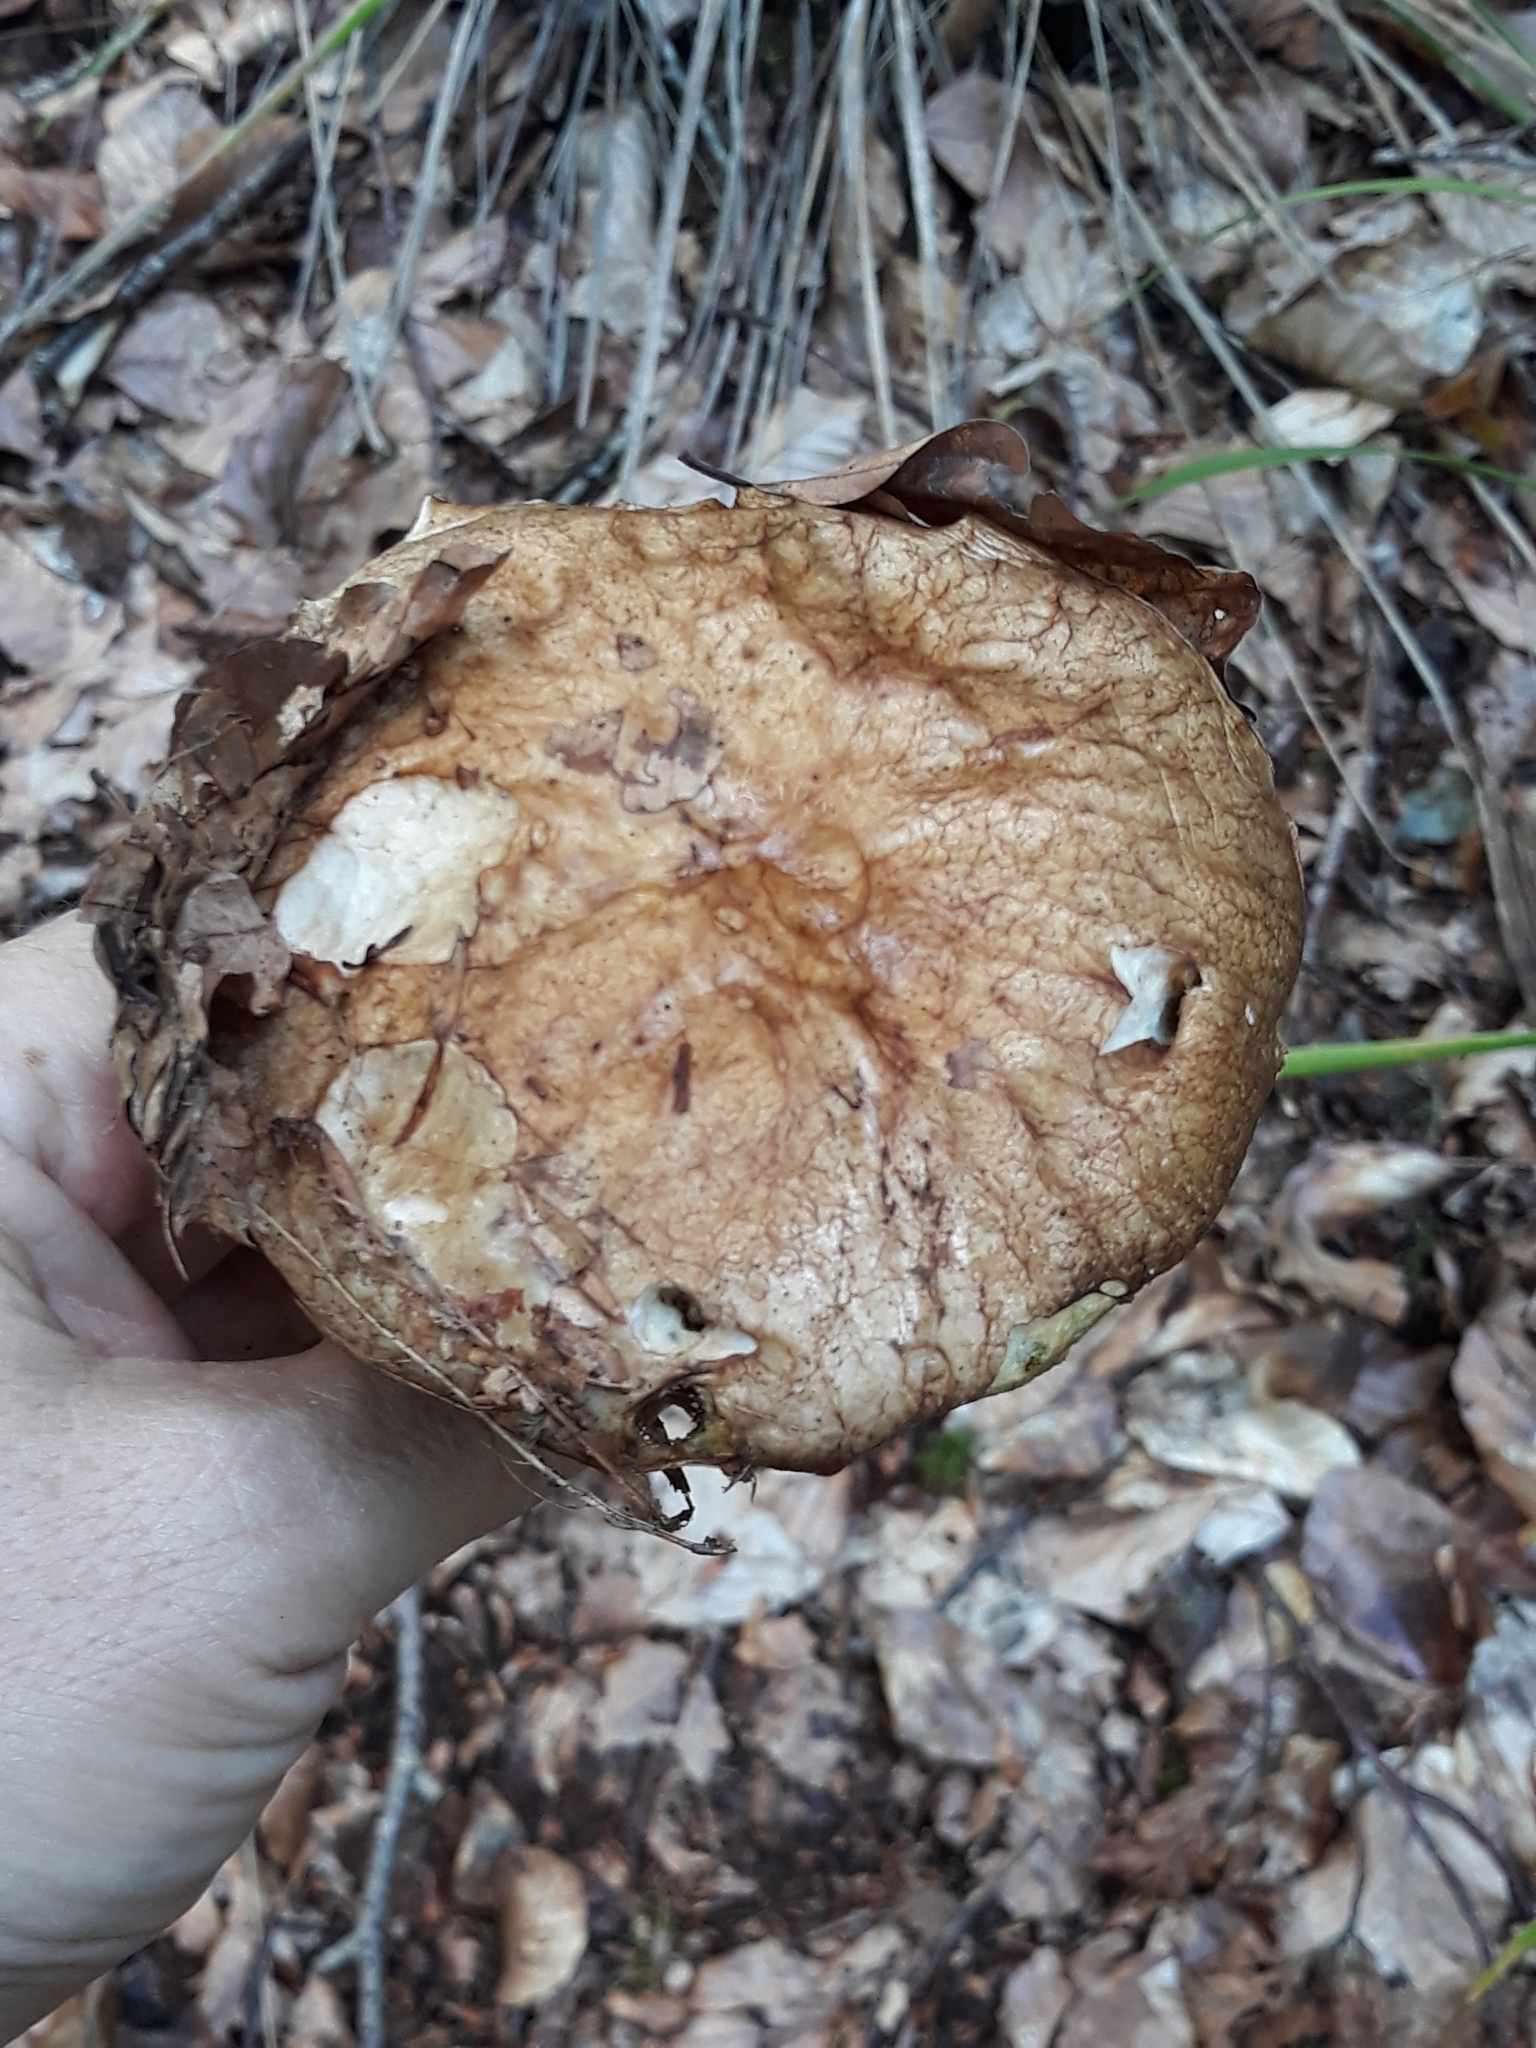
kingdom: Fungi
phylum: Basidiomycota
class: Agaricomycetes
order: Boletales
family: Boletaceae
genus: Boletus
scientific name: Boletus edulis
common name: Cep
